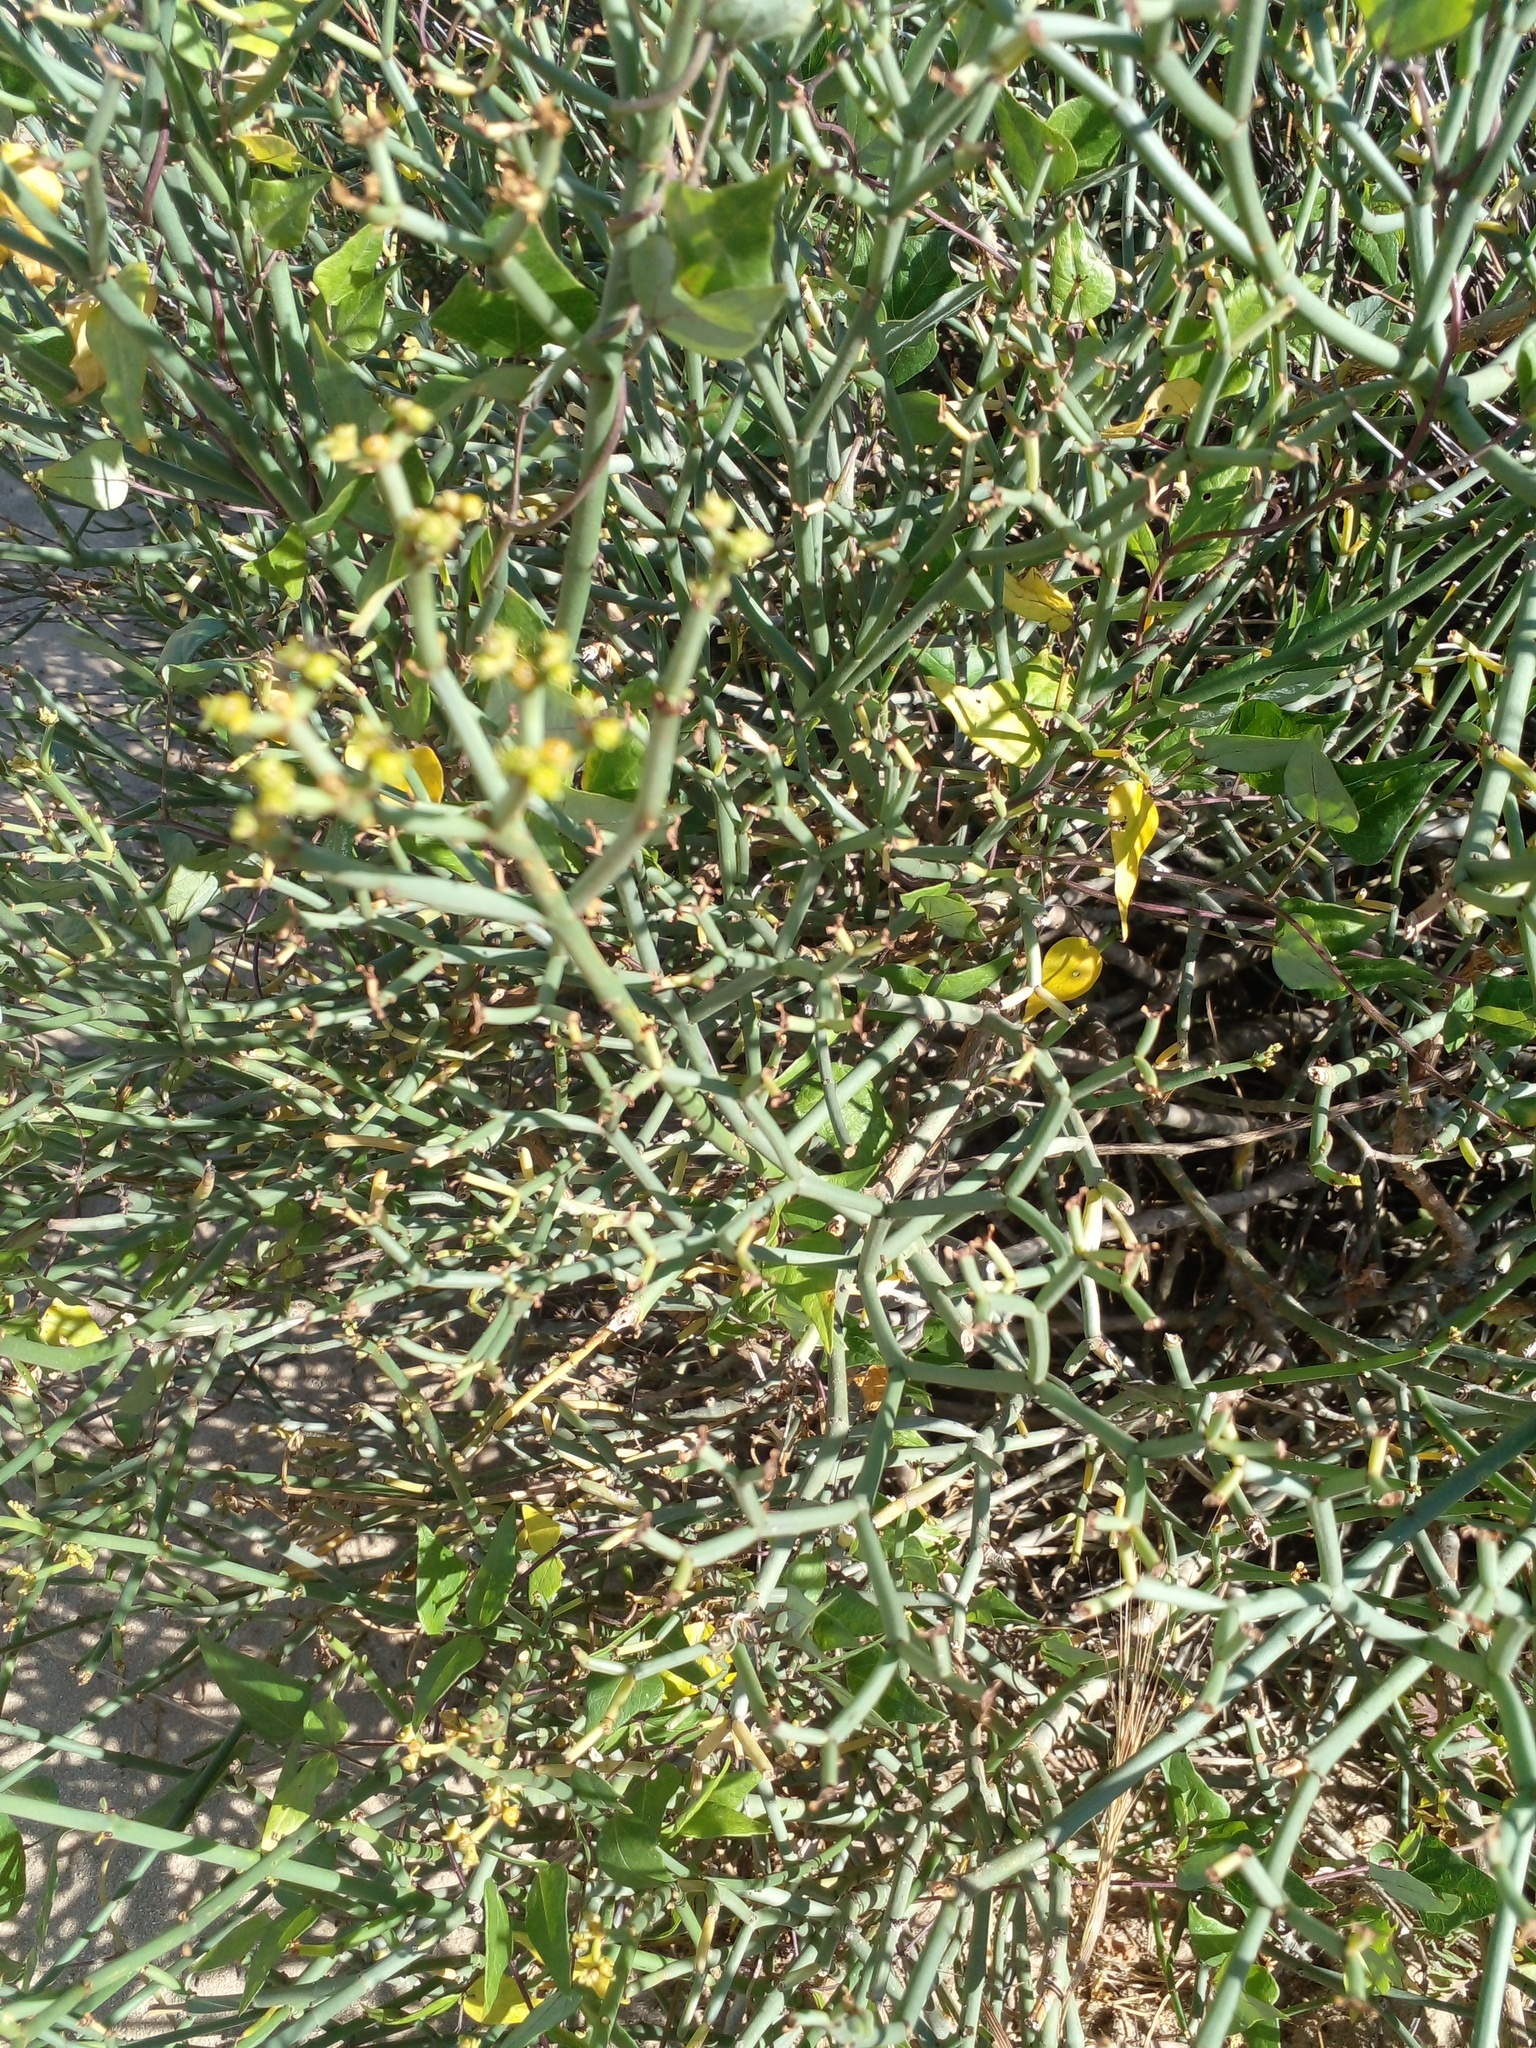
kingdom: Plantae
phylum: Tracheophyta
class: Magnoliopsida
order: Malpighiales
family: Euphorbiaceae
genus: Euphorbia
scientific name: Euphorbia burmanni
